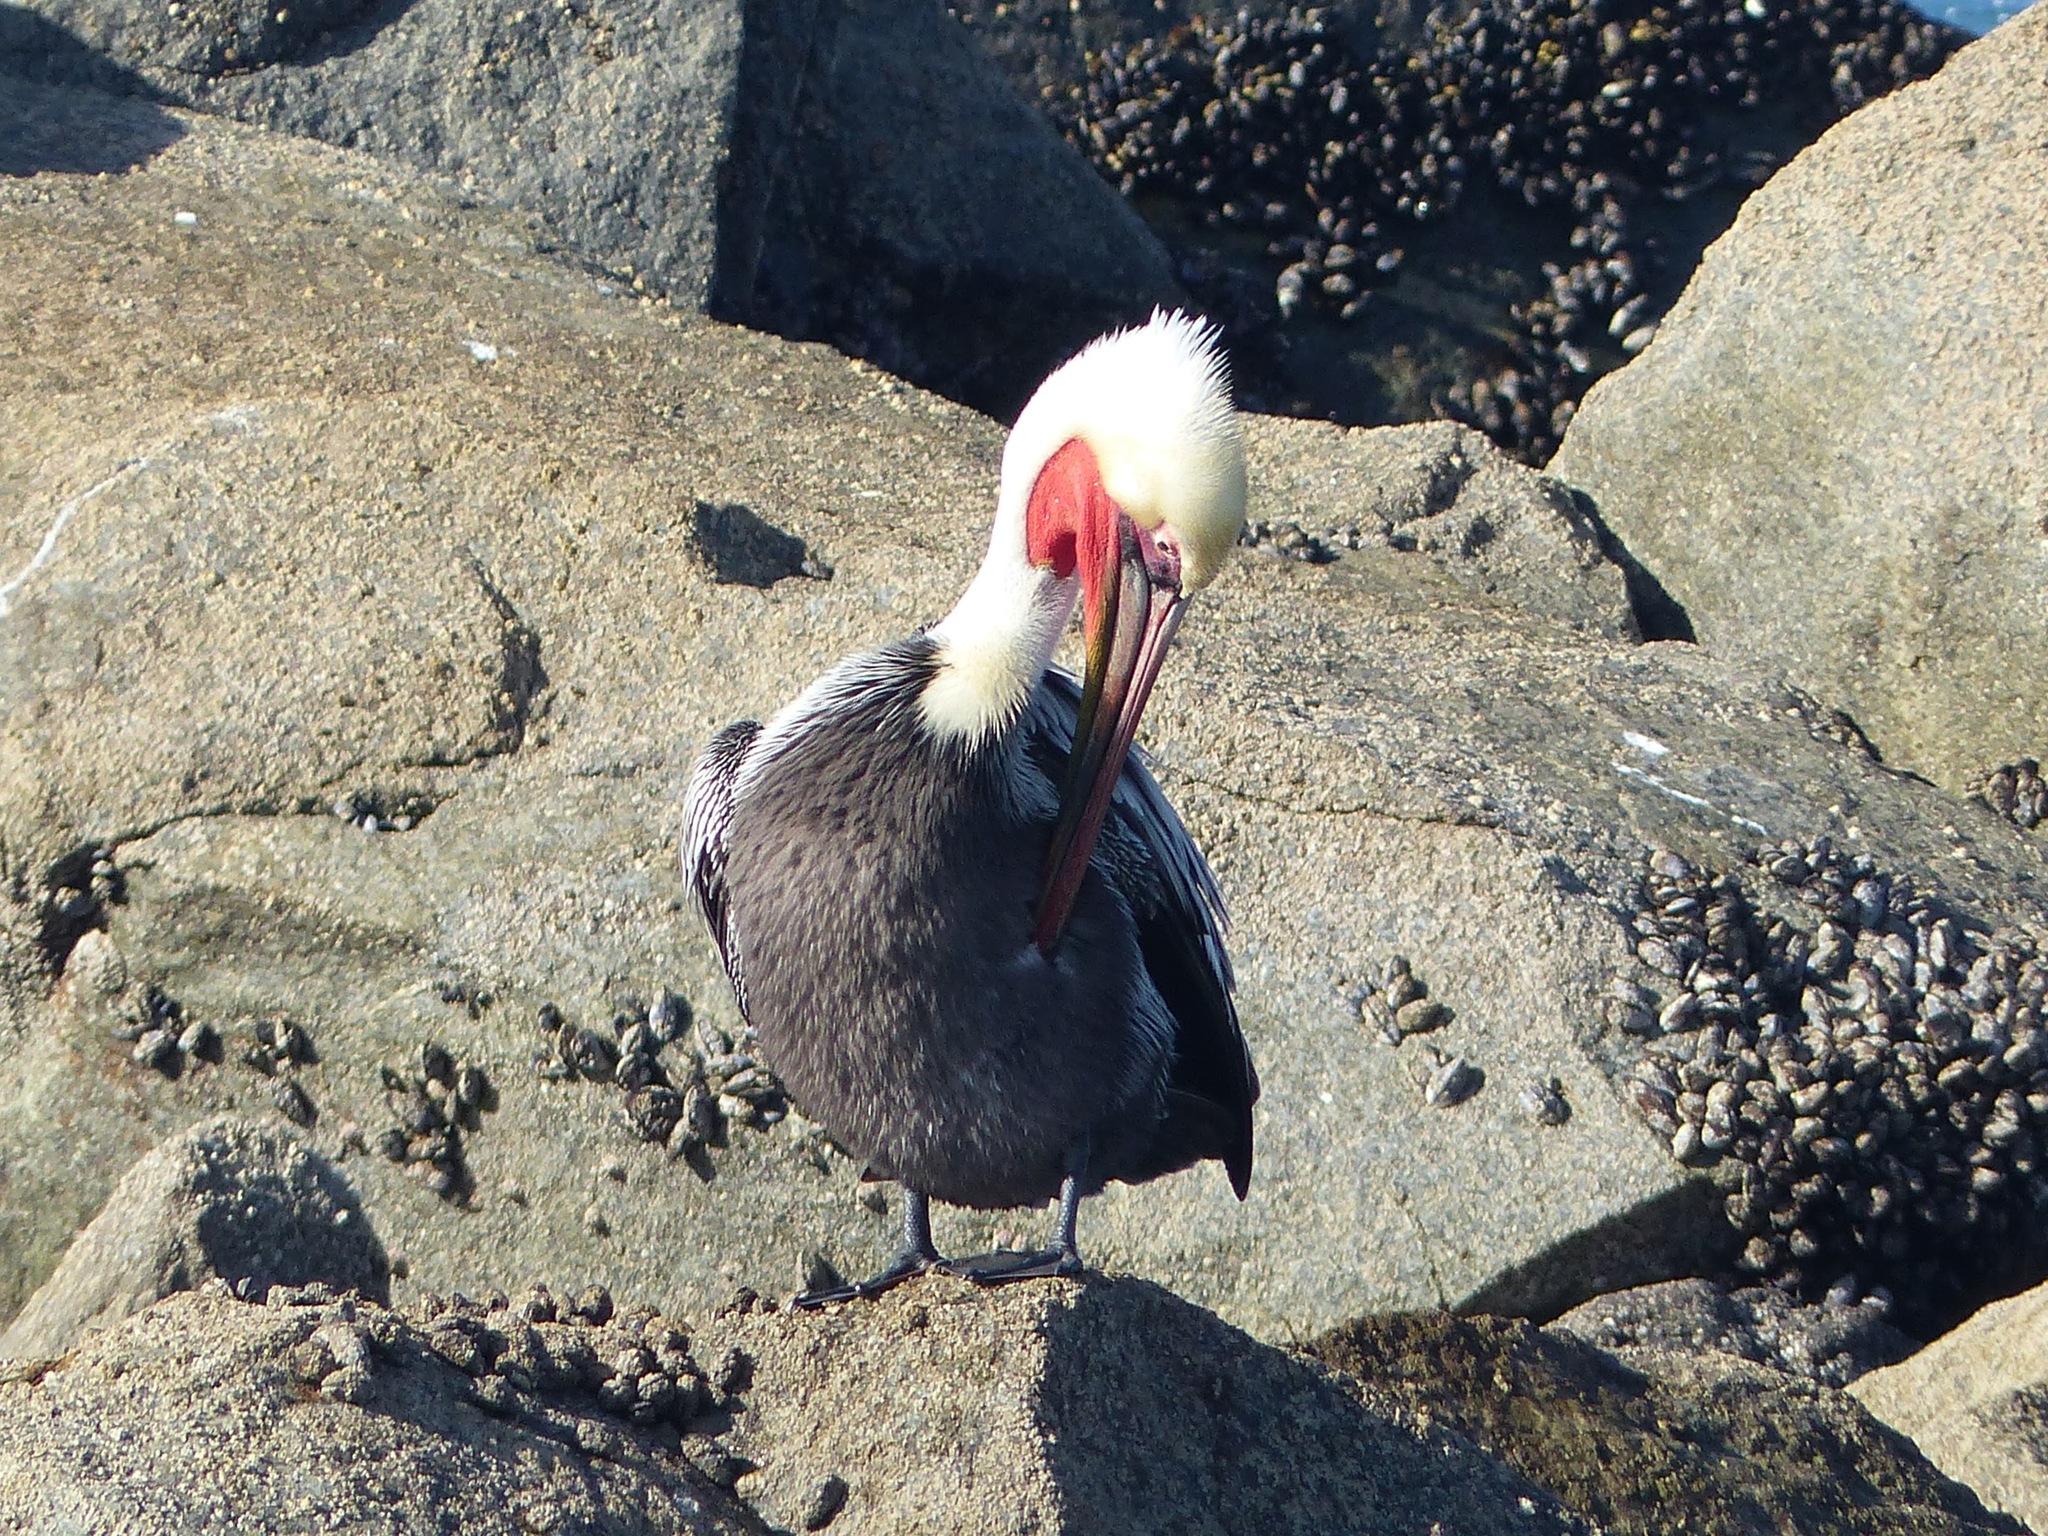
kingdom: Animalia
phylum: Chordata
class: Aves
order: Pelecaniformes
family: Pelecanidae
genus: Pelecanus
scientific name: Pelecanus occidentalis
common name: Brown pelican
